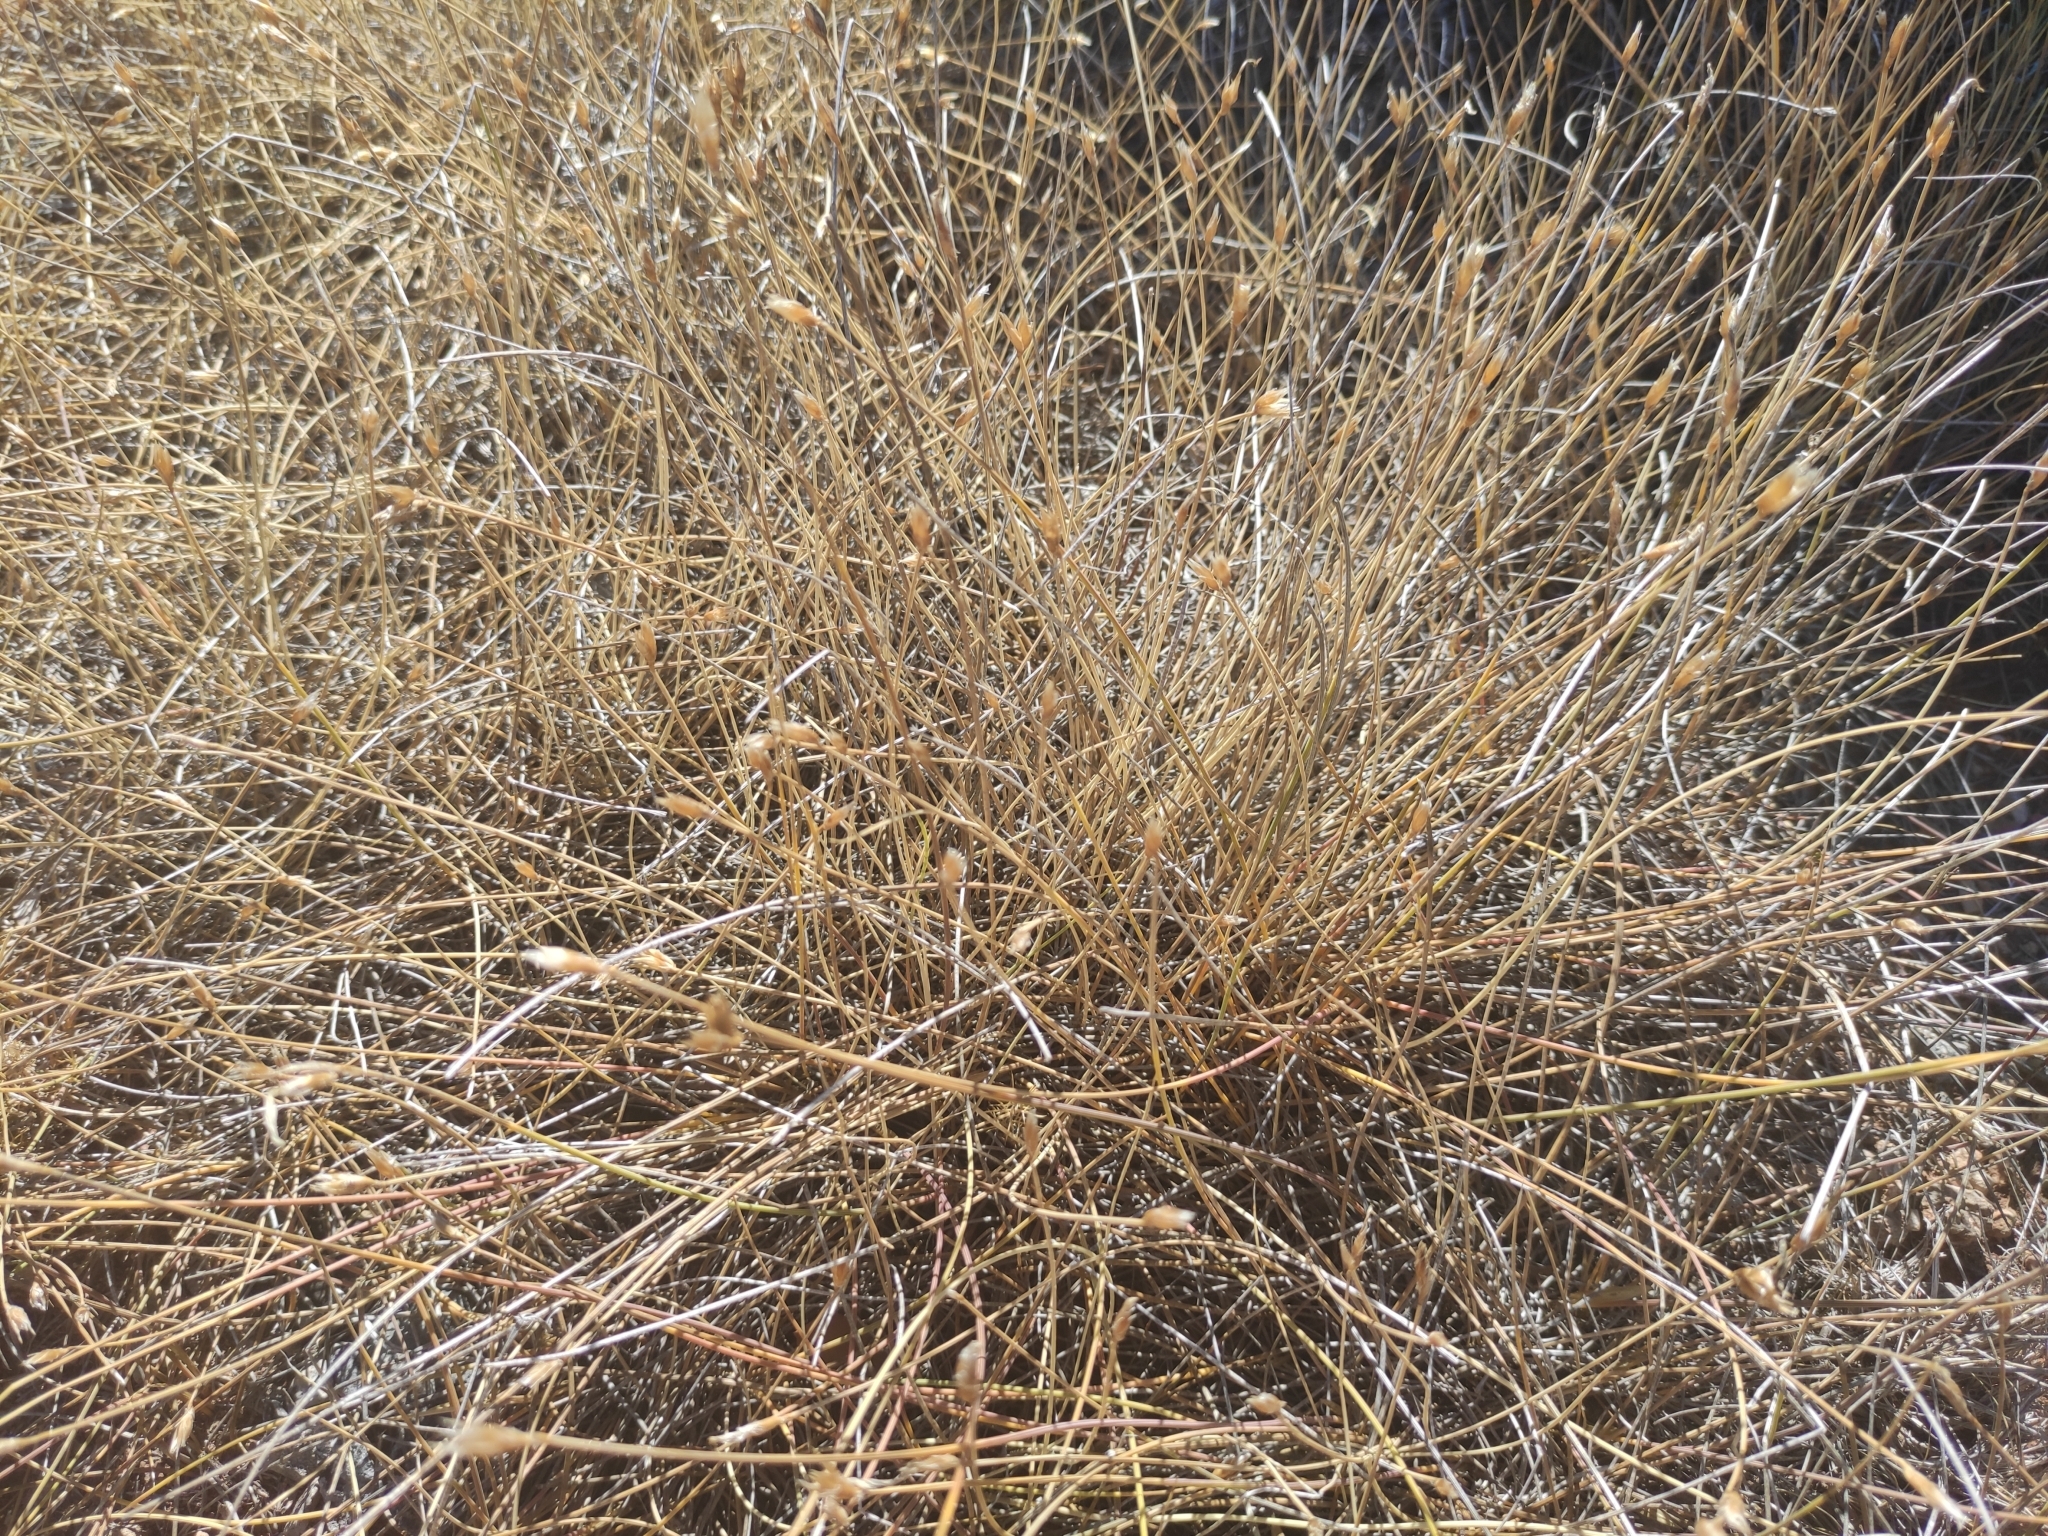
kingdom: Plantae
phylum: Tracheophyta
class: Liliopsida
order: Asparagales
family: Asparagaceae
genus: Aphyllanthes
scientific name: Aphyllanthes monspeliensis
